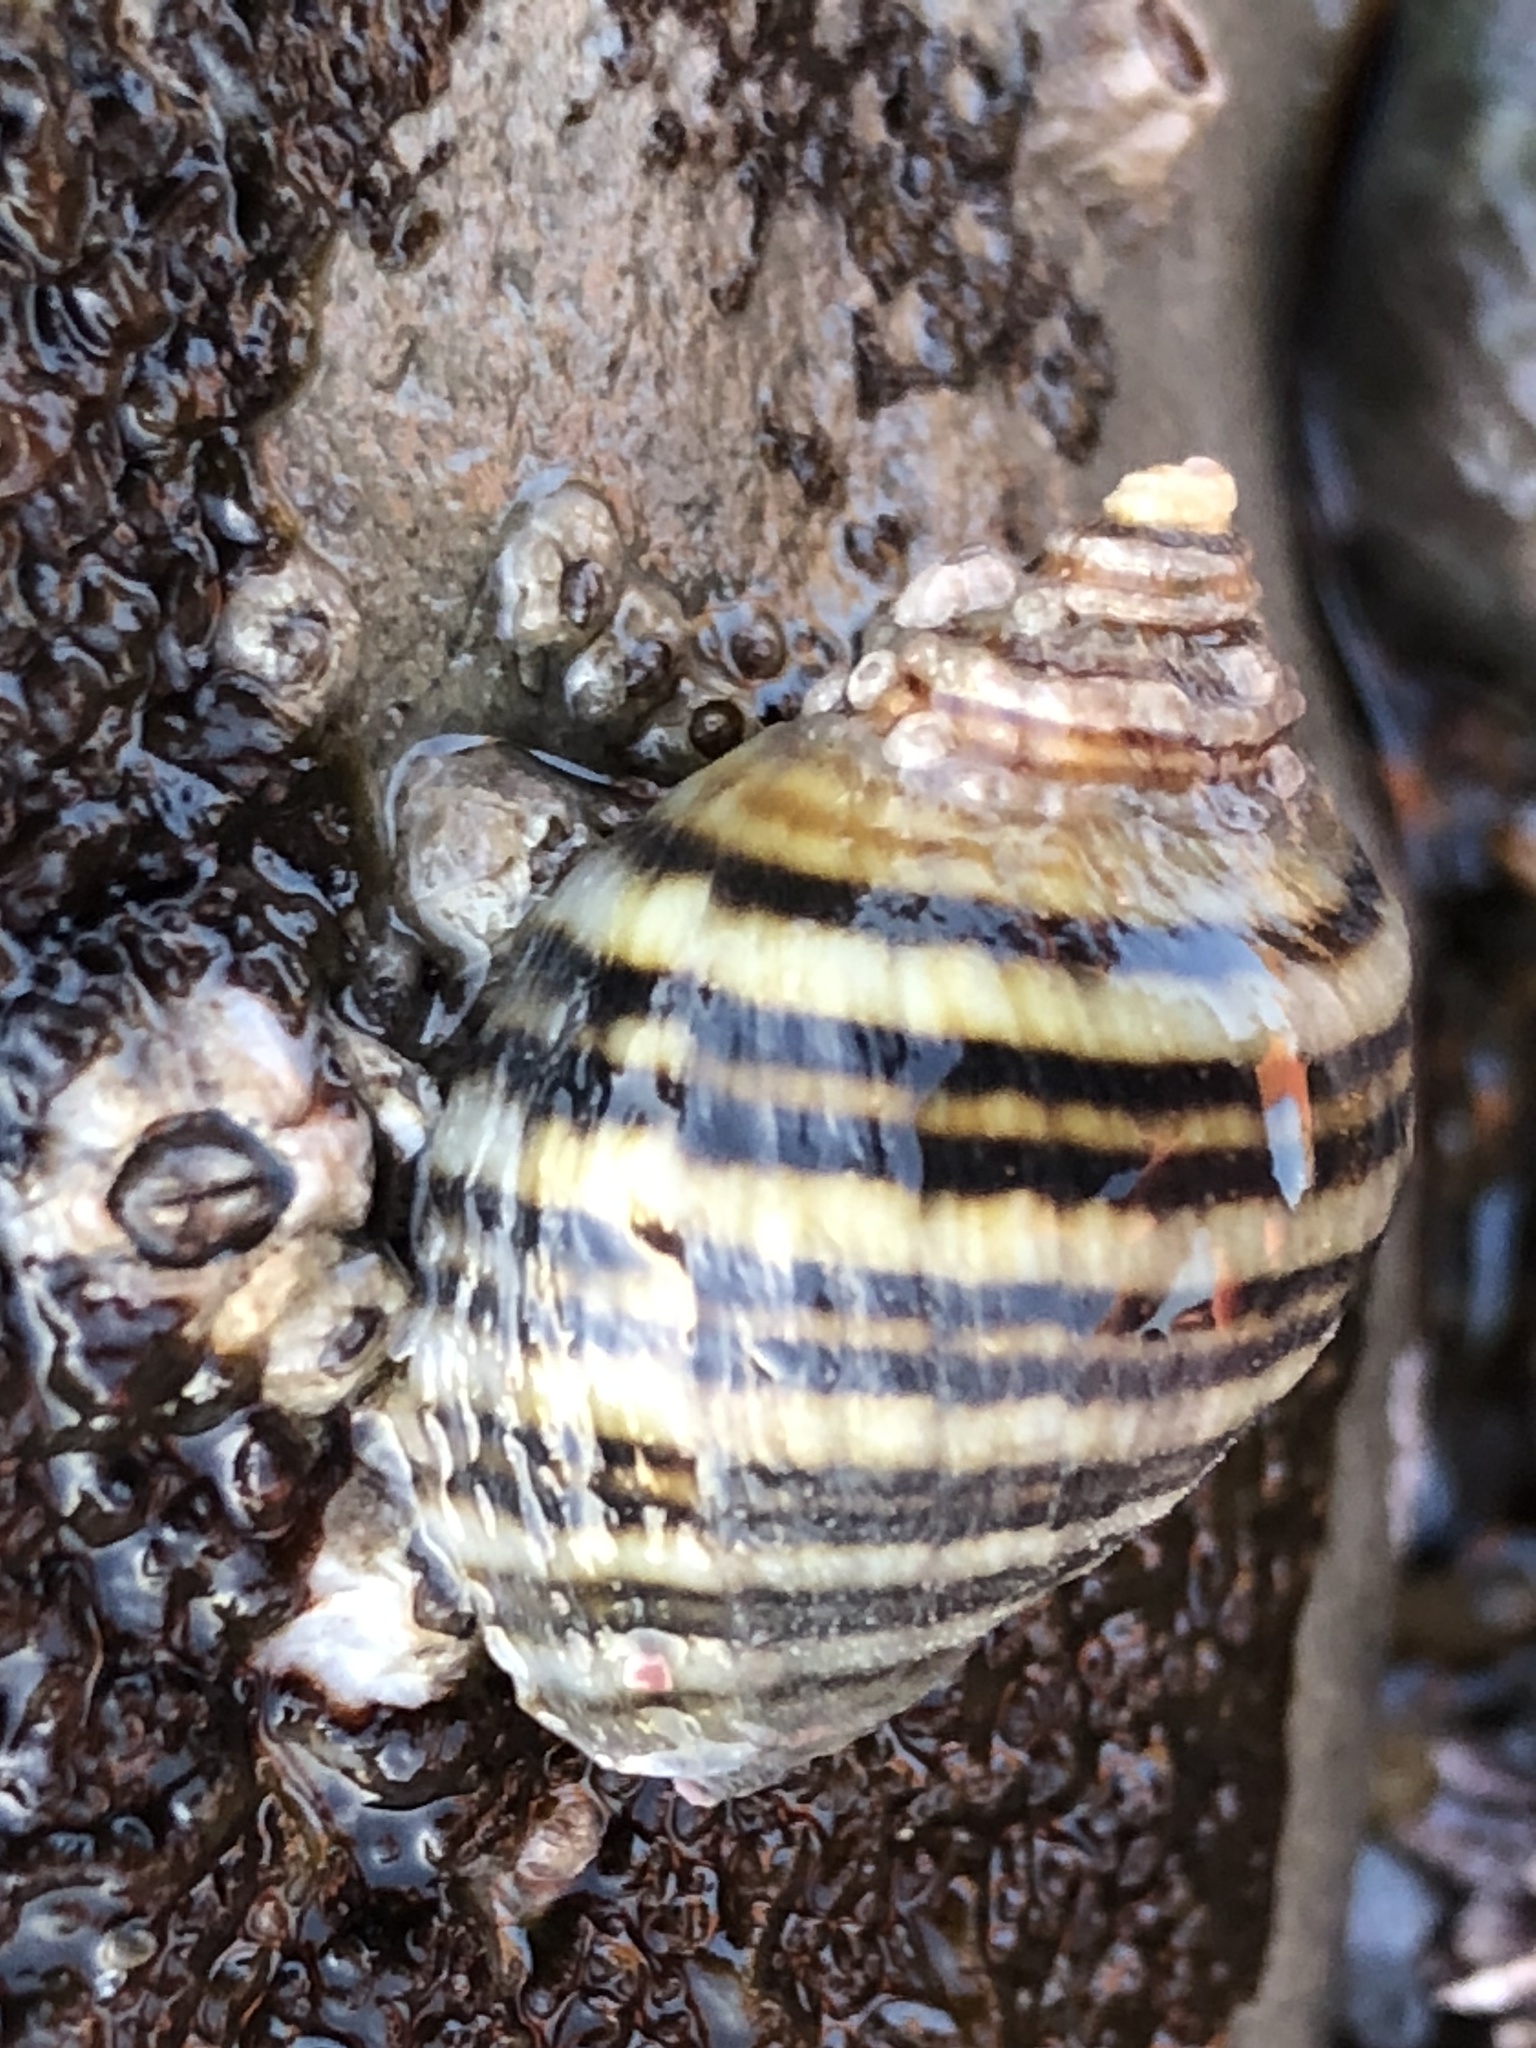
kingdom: Animalia
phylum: Mollusca
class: Gastropoda
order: Neogastropoda
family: Muricidae
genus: Nucella
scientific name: Nucella ostrina
